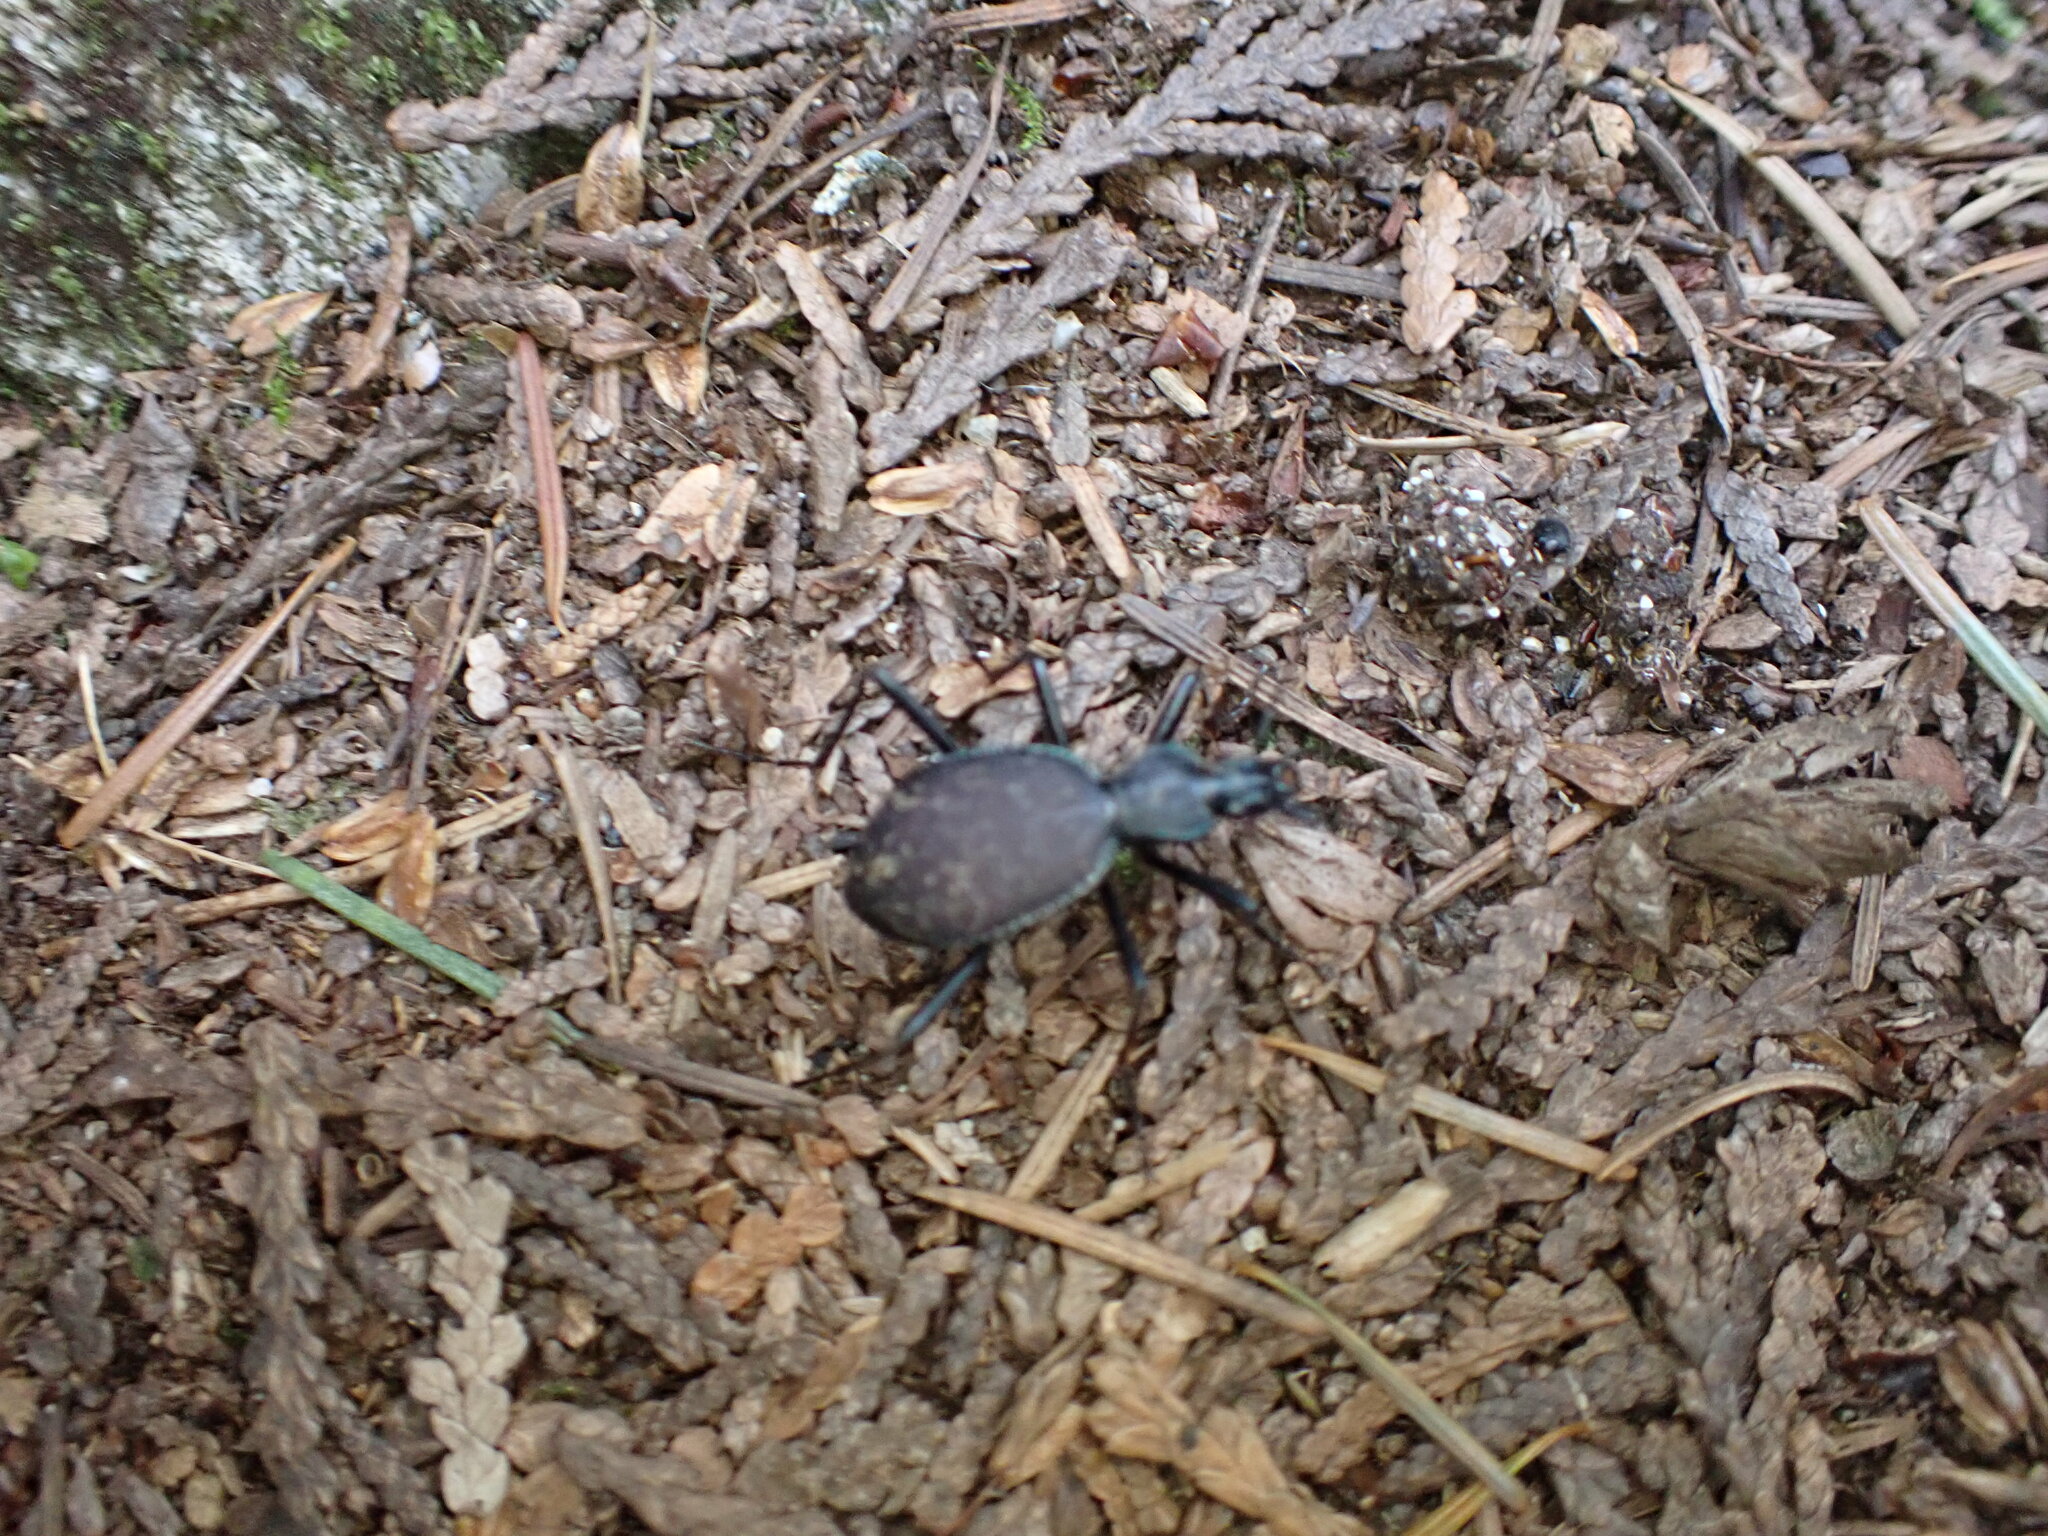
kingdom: Animalia
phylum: Arthropoda
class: Insecta
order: Coleoptera
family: Carabidae
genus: Scaphinotus
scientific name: Scaphinotus angusticollis
